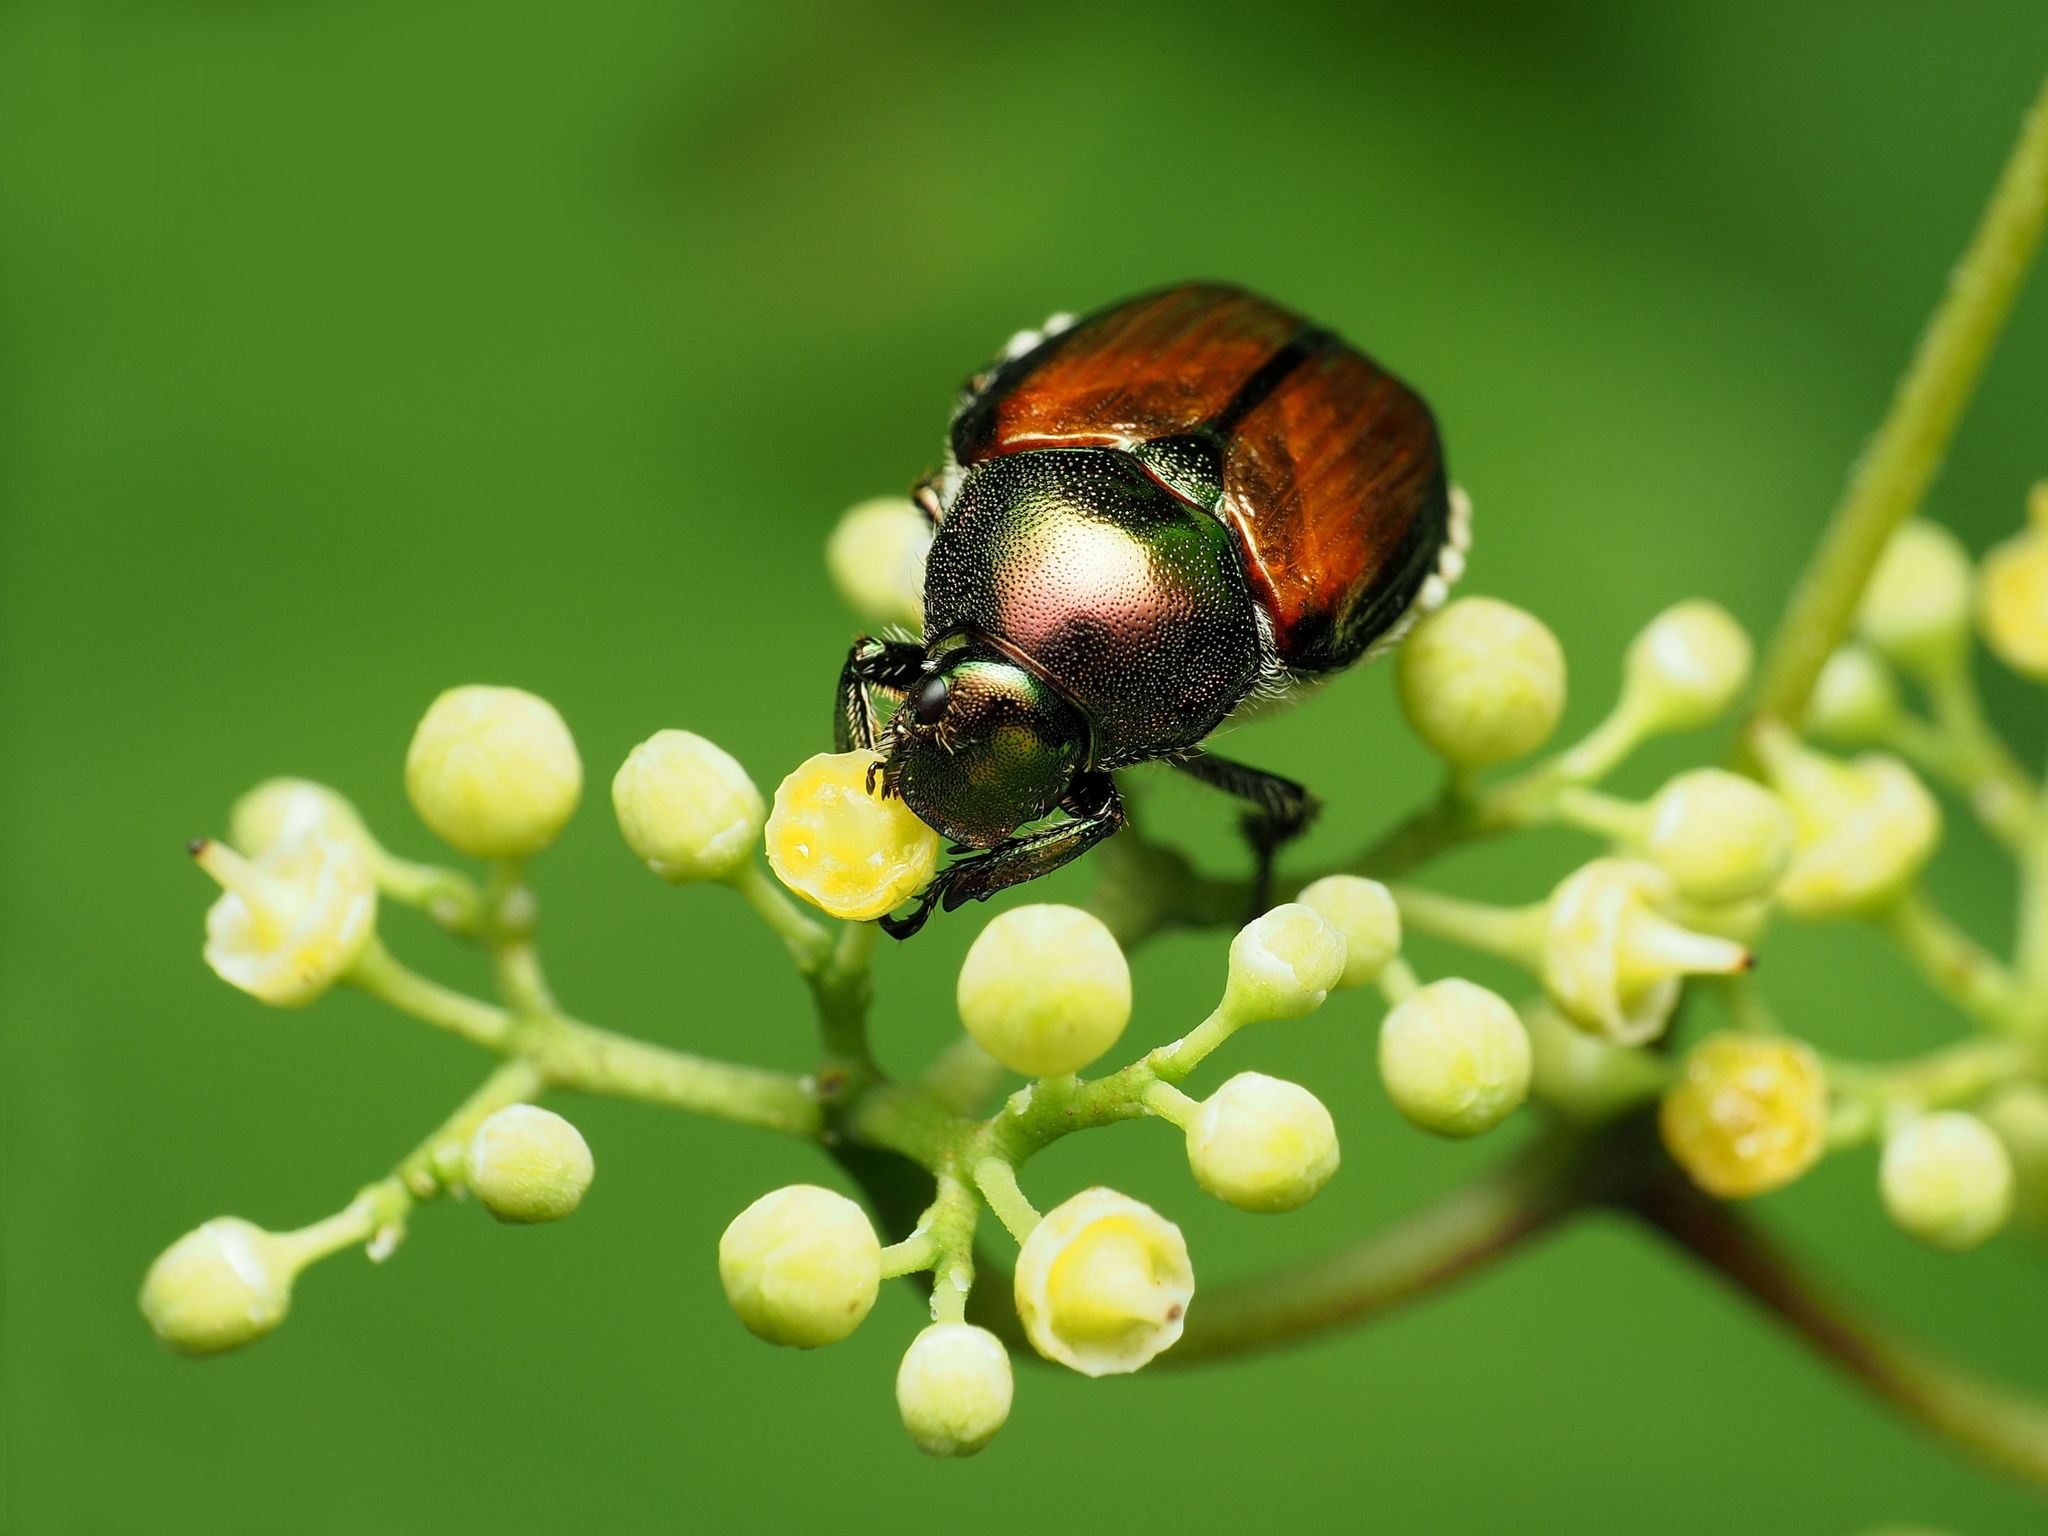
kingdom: Animalia
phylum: Arthropoda
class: Insecta
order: Coleoptera
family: Scarabaeidae
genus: Popillia
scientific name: Popillia japonica
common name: Japanese beetle
